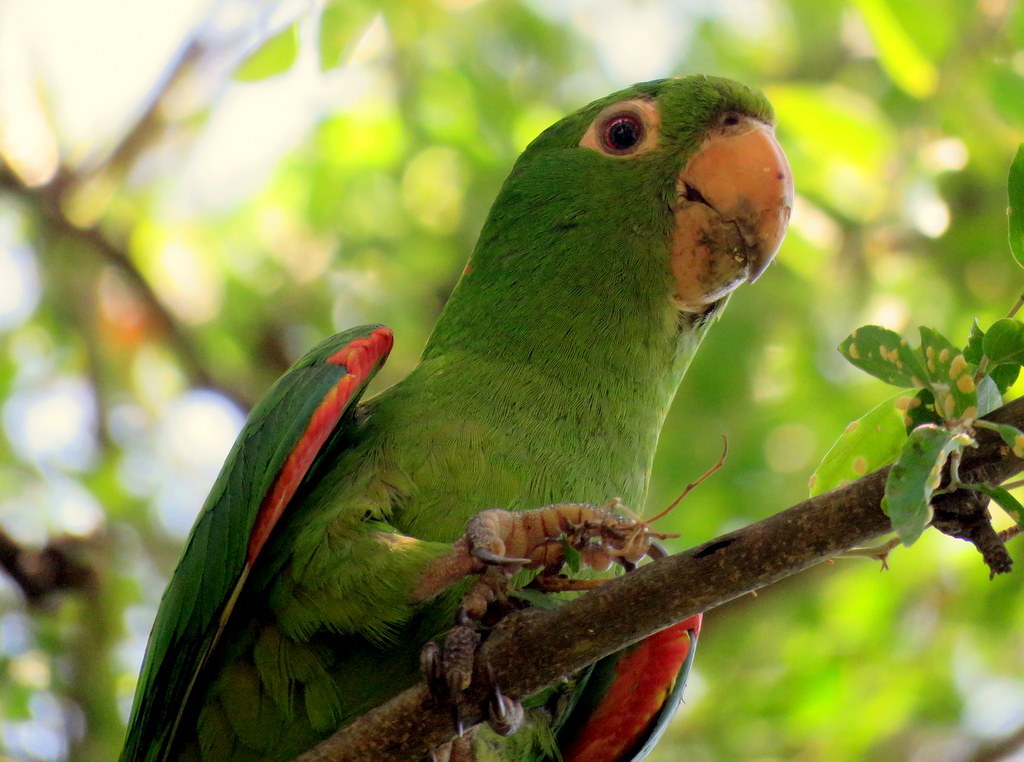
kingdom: Animalia
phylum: Chordata
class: Aves
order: Psittaciformes
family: Psittacidae
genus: Aratinga
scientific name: Aratinga leucophthalma
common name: White-eyed parakeet
